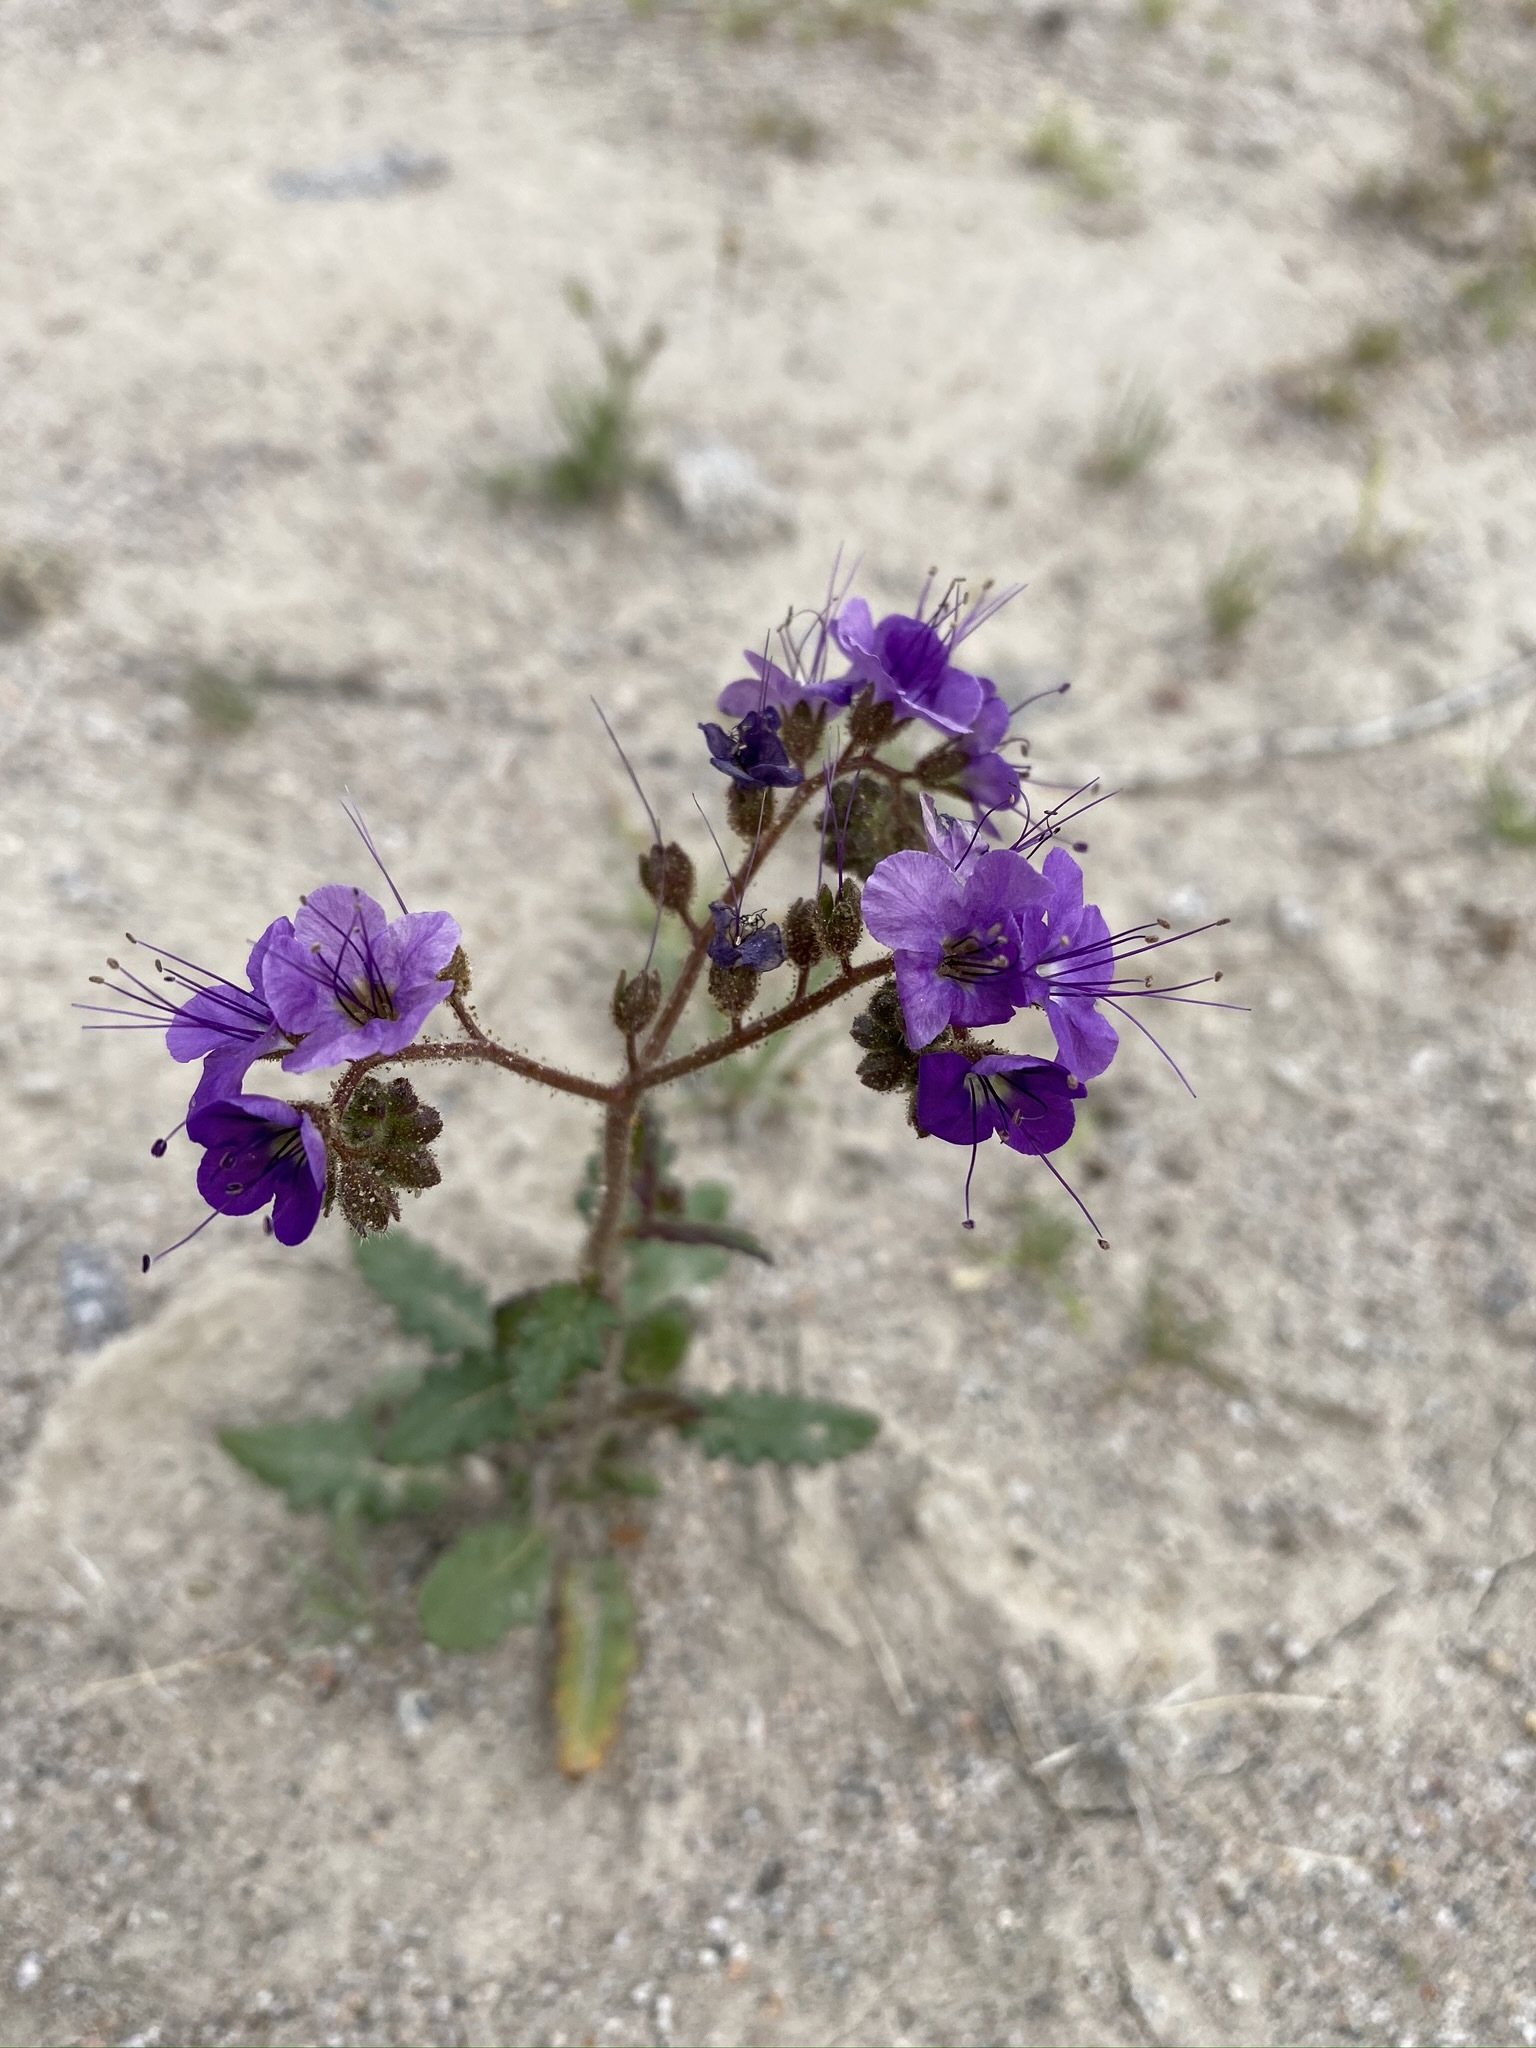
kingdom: Plantae
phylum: Tracheophyta
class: Magnoliopsida
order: Boraginales
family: Hydrophyllaceae
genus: Phacelia
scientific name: Phacelia crenulata
